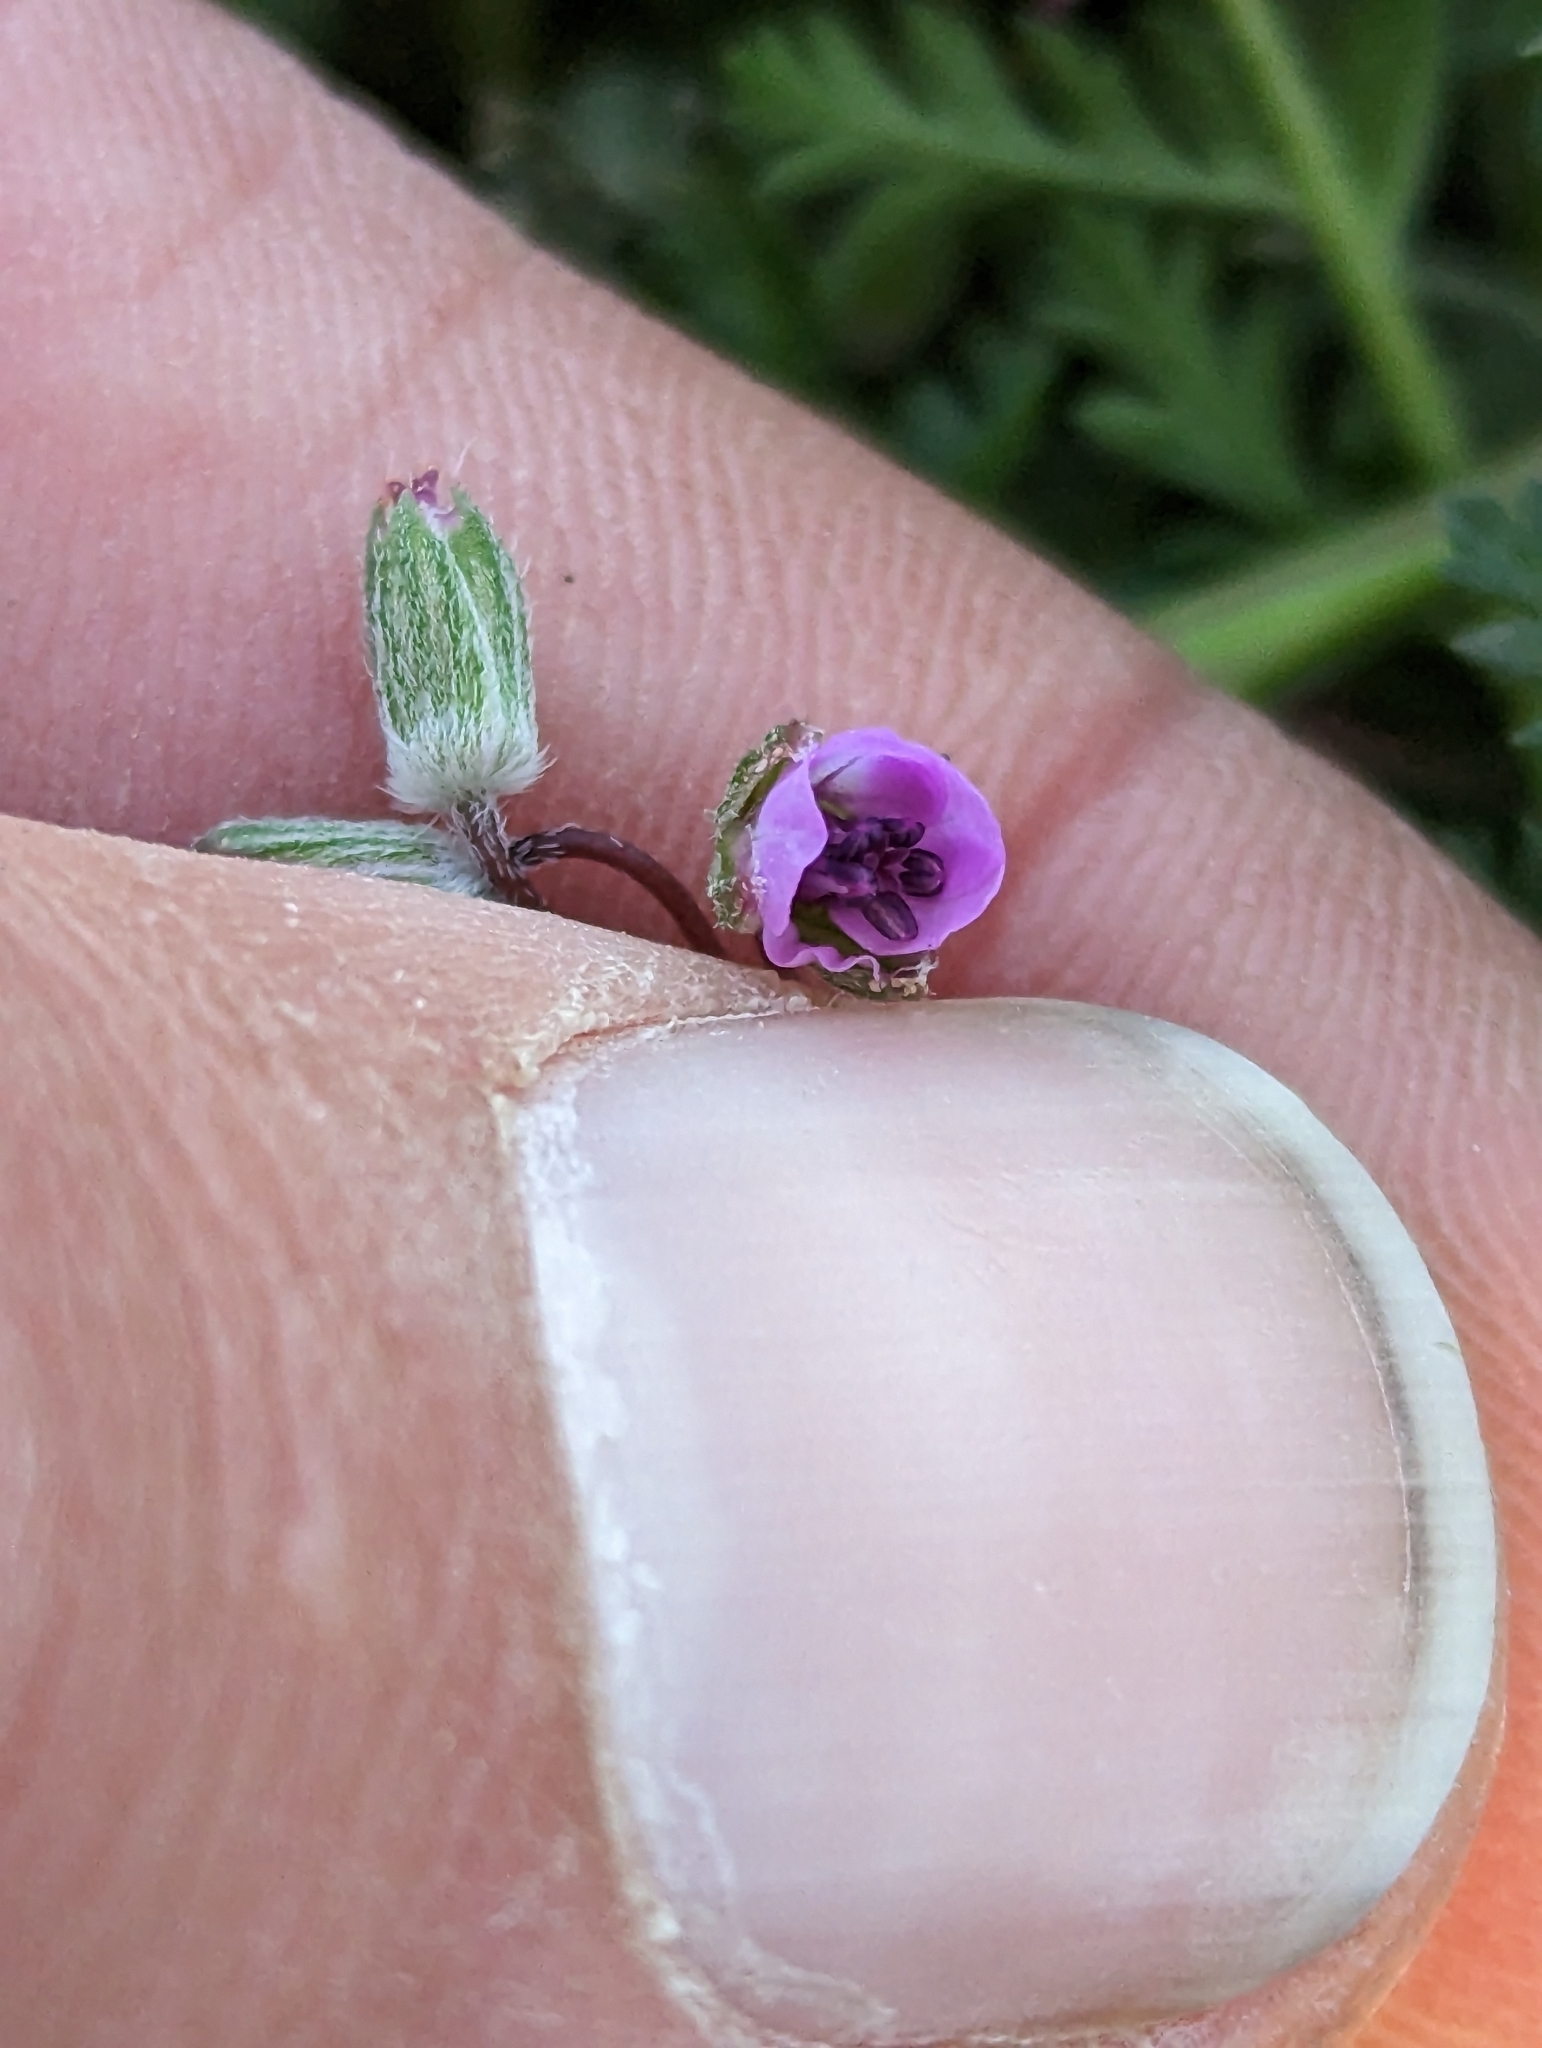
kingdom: Plantae
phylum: Tracheophyta
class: Magnoliopsida
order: Geraniales
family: Geraniaceae
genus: Erodium
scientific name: Erodium cicutarium
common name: Common stork's-bill
